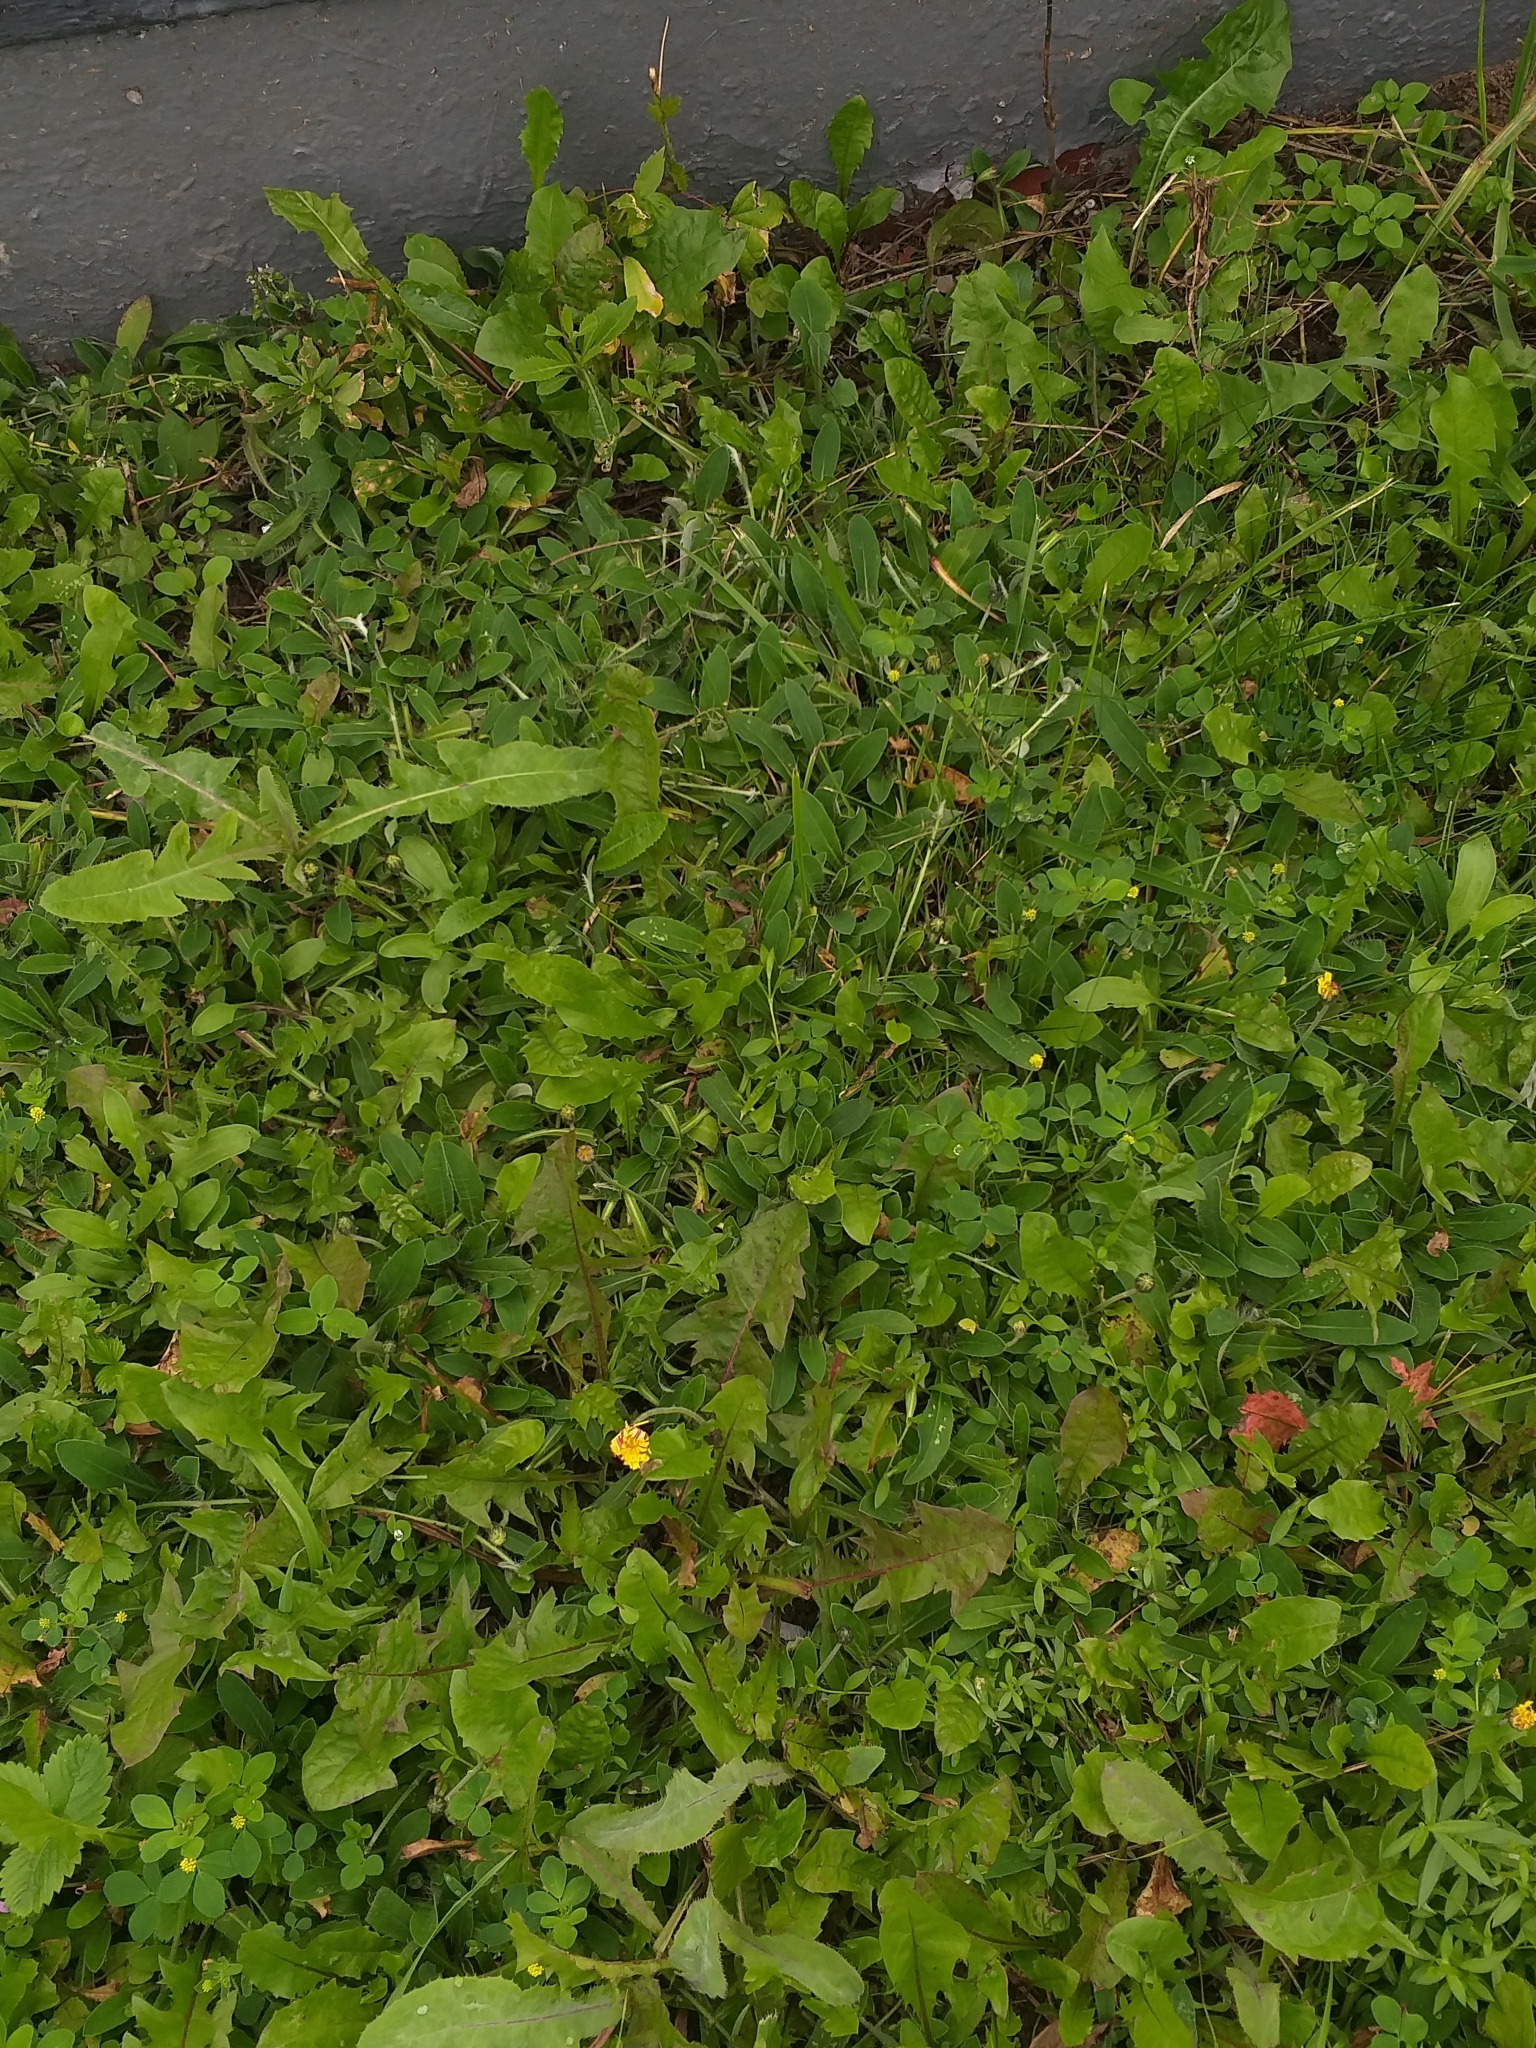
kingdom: Plantae
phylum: Tracheophyta
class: Magnoliopsida
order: Asterales
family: Asteraceae
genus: Pilosella
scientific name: Pilosella officinarum
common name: Mouse-ear hawkweed
